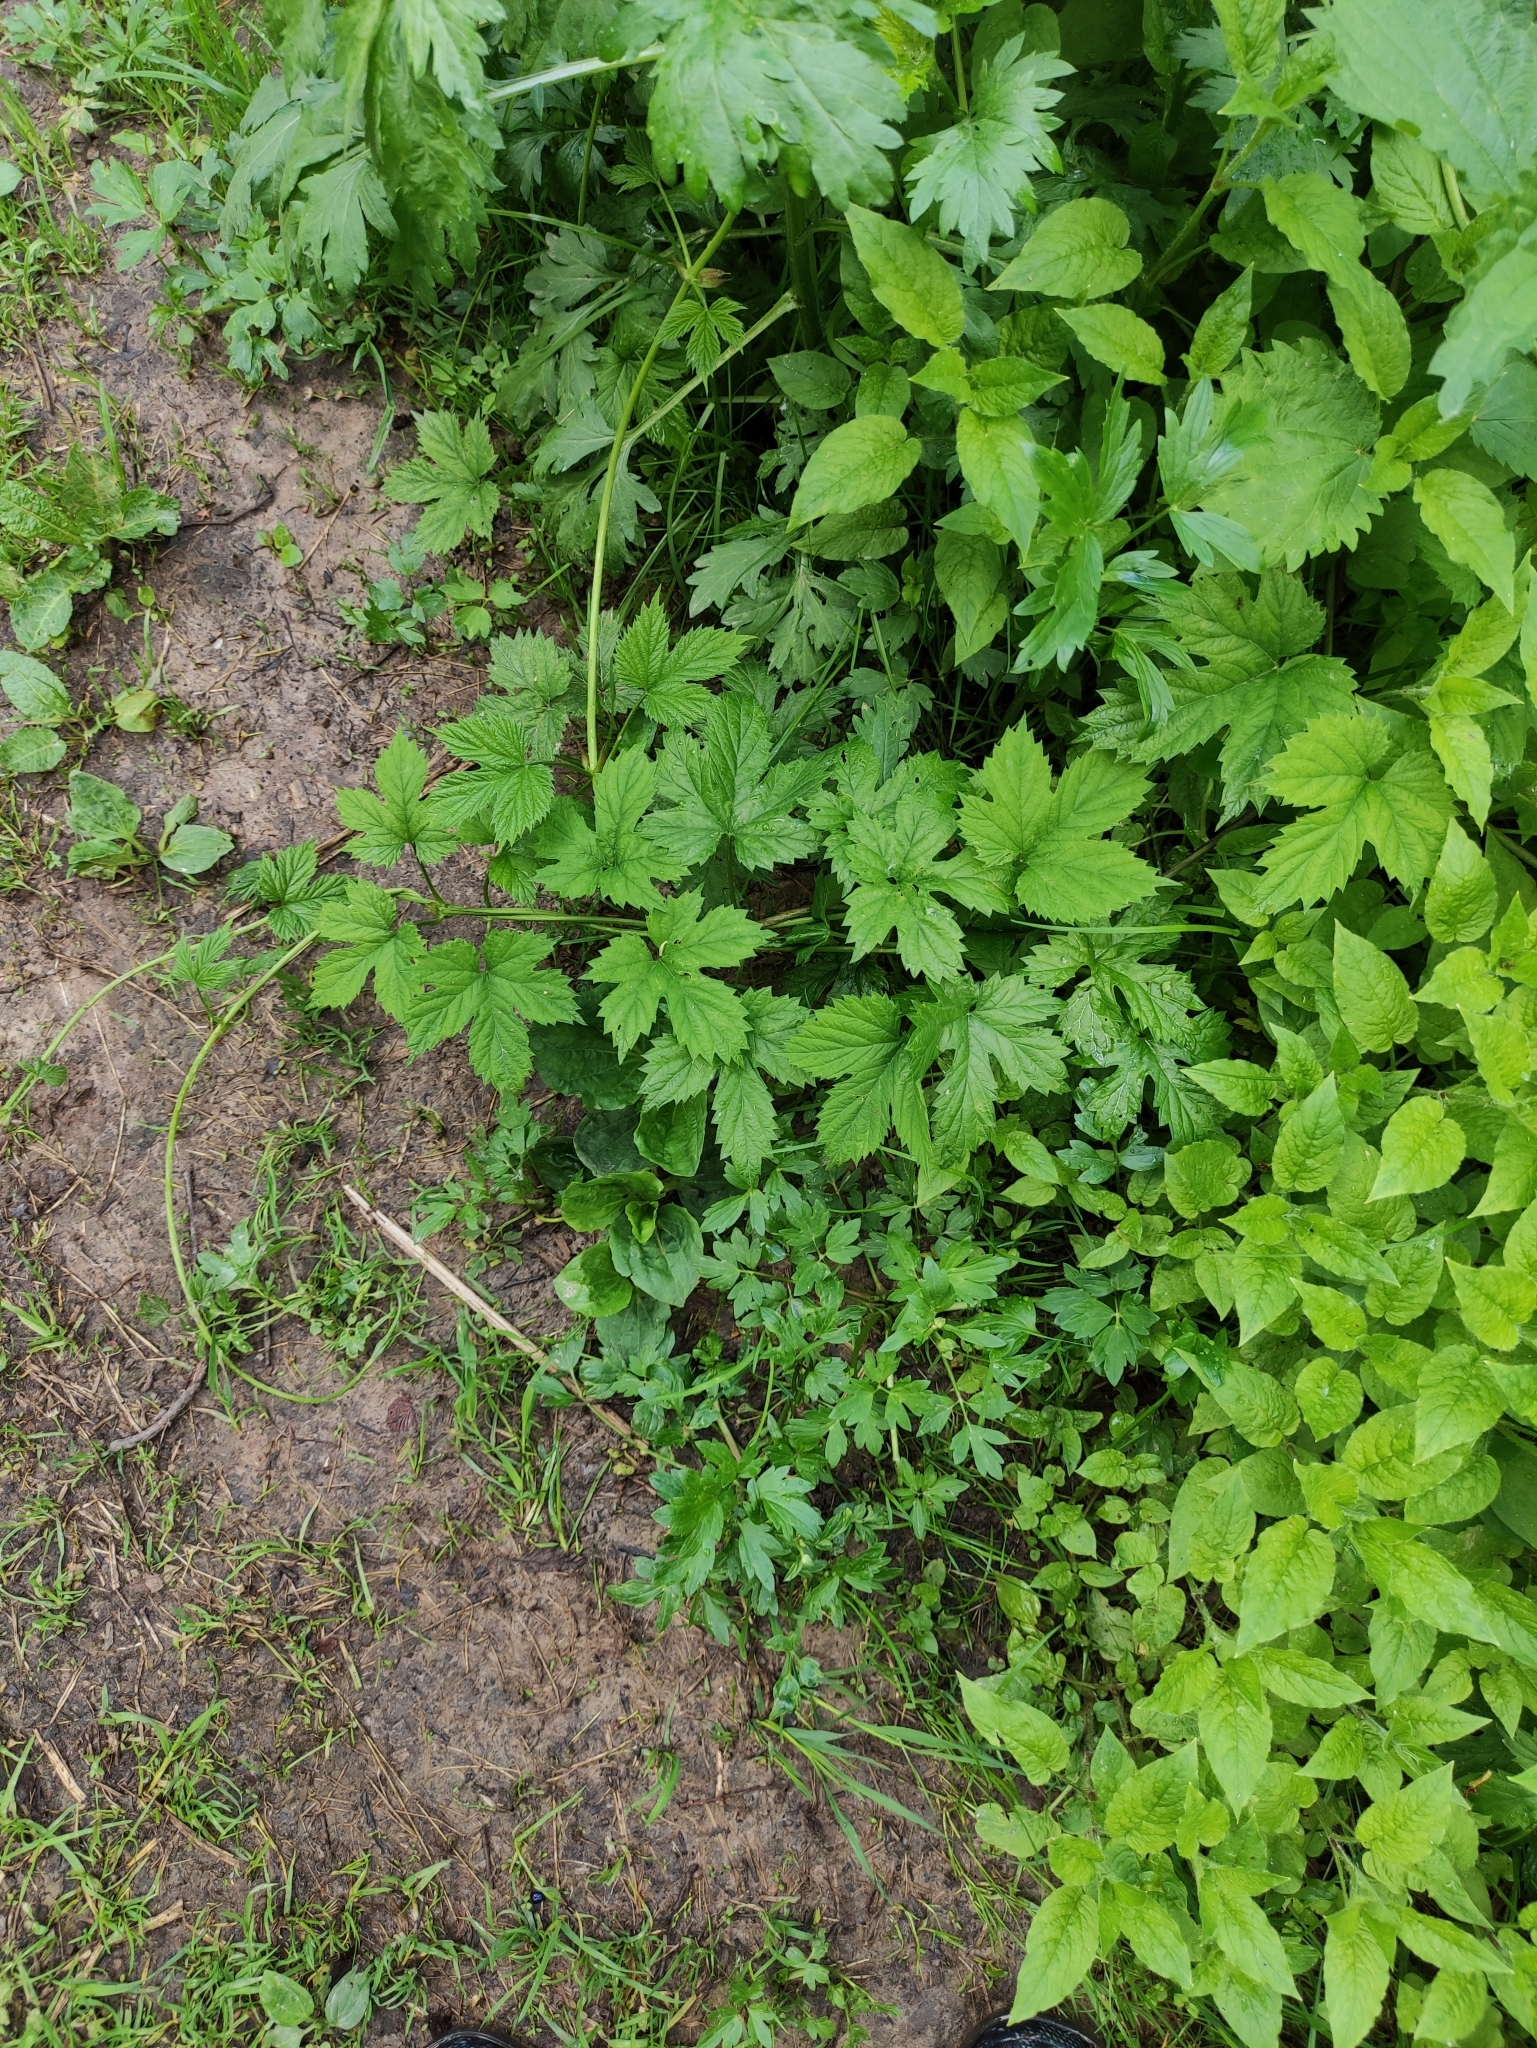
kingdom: Plantae
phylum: Tracheophyta
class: Magnoliopsida
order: Rosales
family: Cannabaceae
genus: Humulus
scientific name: Humulus lupulus
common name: Hop
